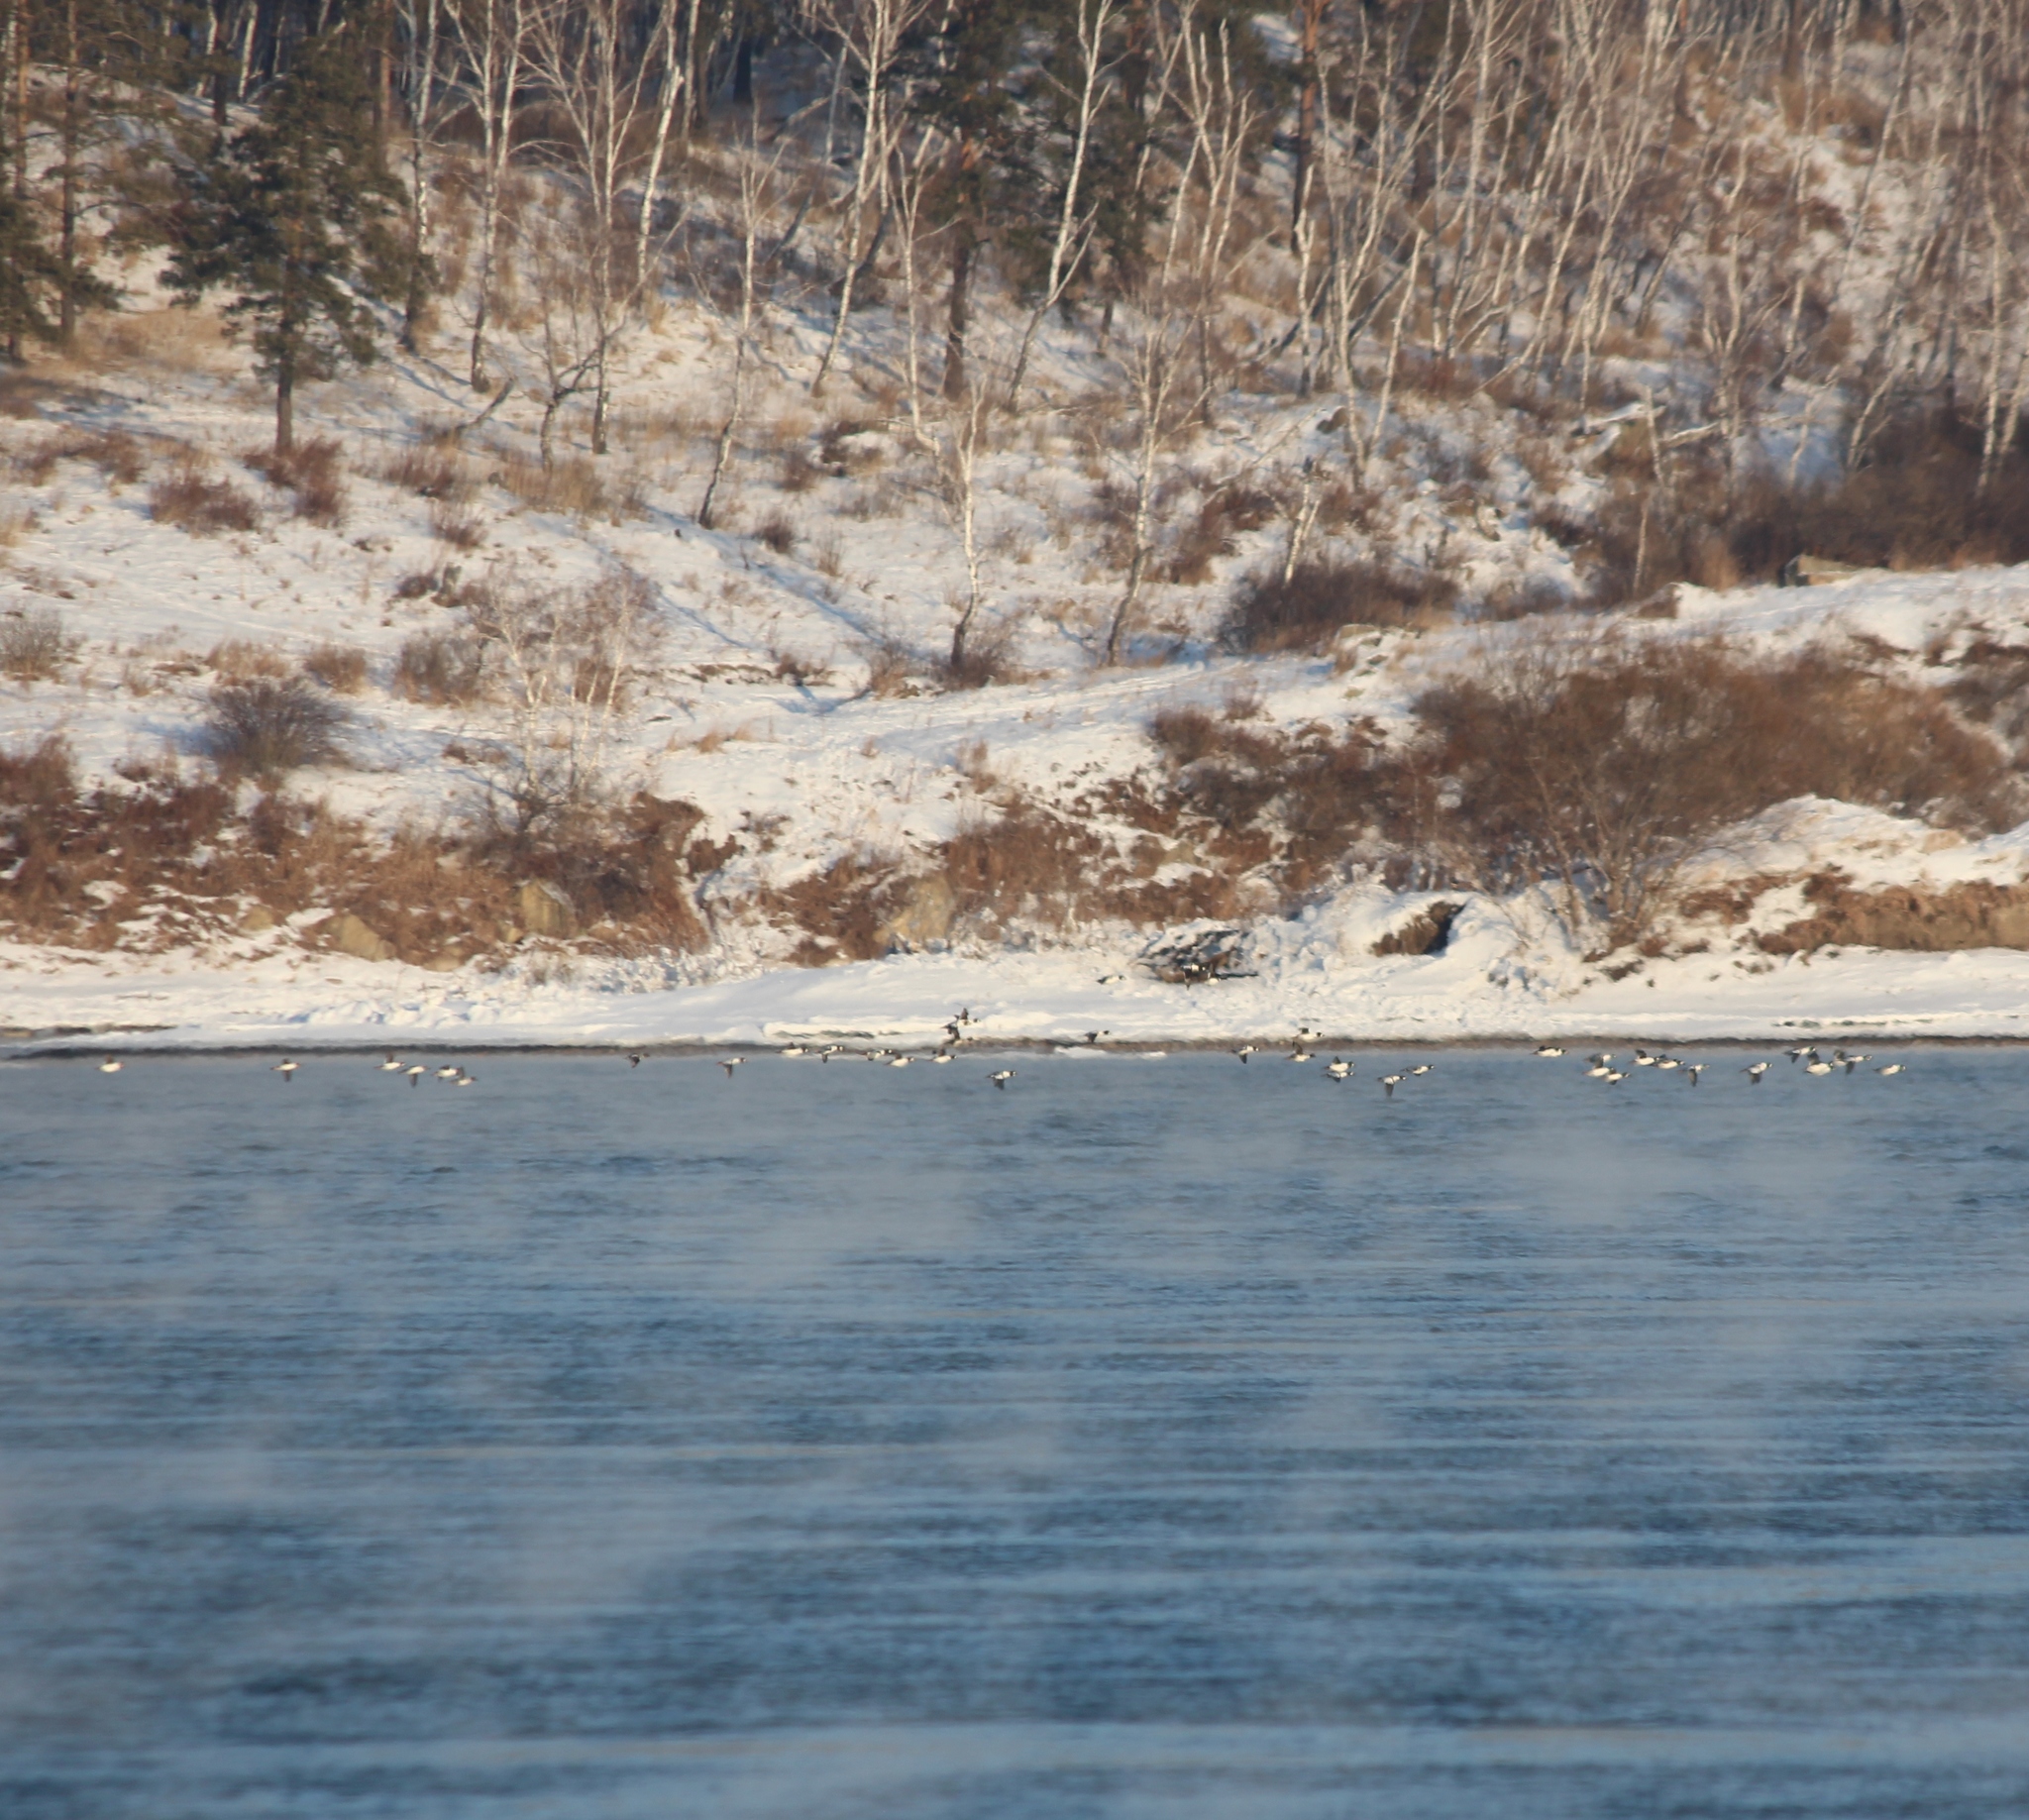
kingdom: Animalia
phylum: Chordata
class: Aves
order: Anseriformes
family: Anatidae
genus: Bucephala
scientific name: Bucephala clangula
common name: Common goldeneye
